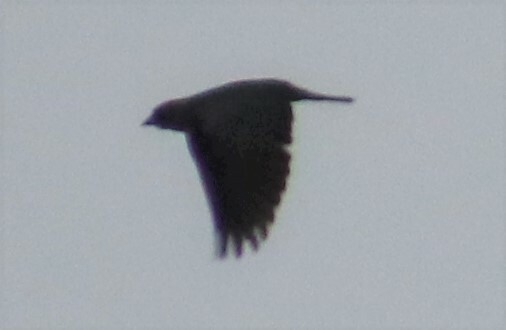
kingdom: Animalia
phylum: Chordata
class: Aves
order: Passeriformes
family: Icteridae
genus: Molothrus
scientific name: Molothrus ater
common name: Brown-headed cowbird
